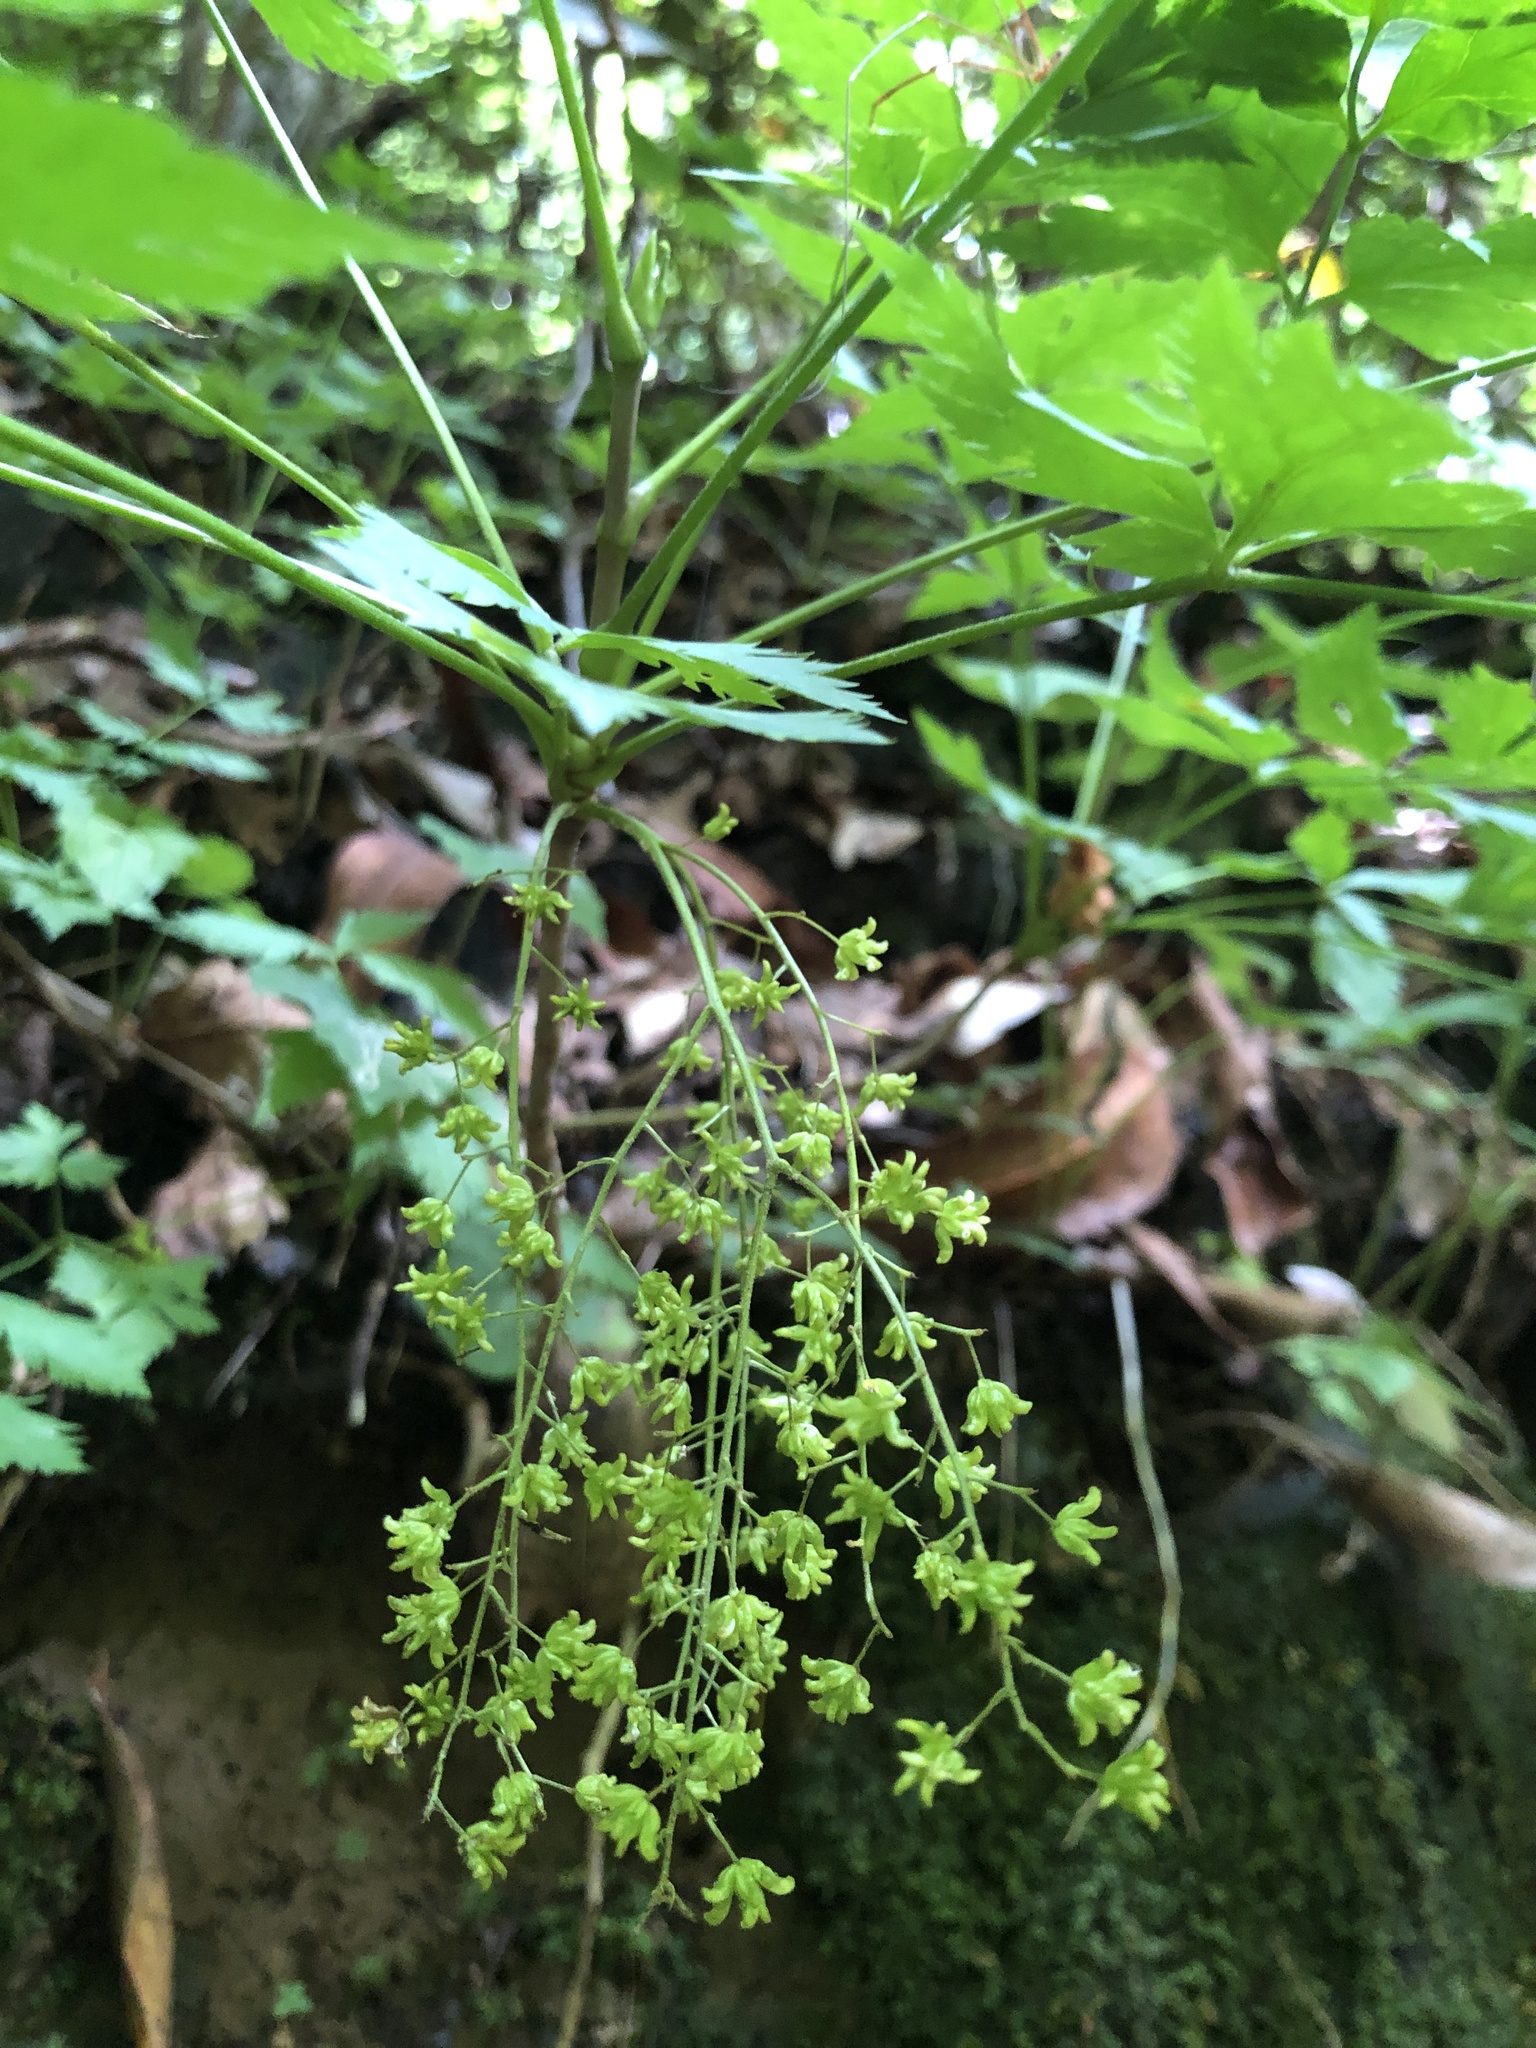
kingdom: Plantae
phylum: Tracheophyta
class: Magnoliopsida
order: Ranunculales
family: Ranunculaceae
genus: Xanthorhiza
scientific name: Xanthorhiza simplicissima
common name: Yellowroot
